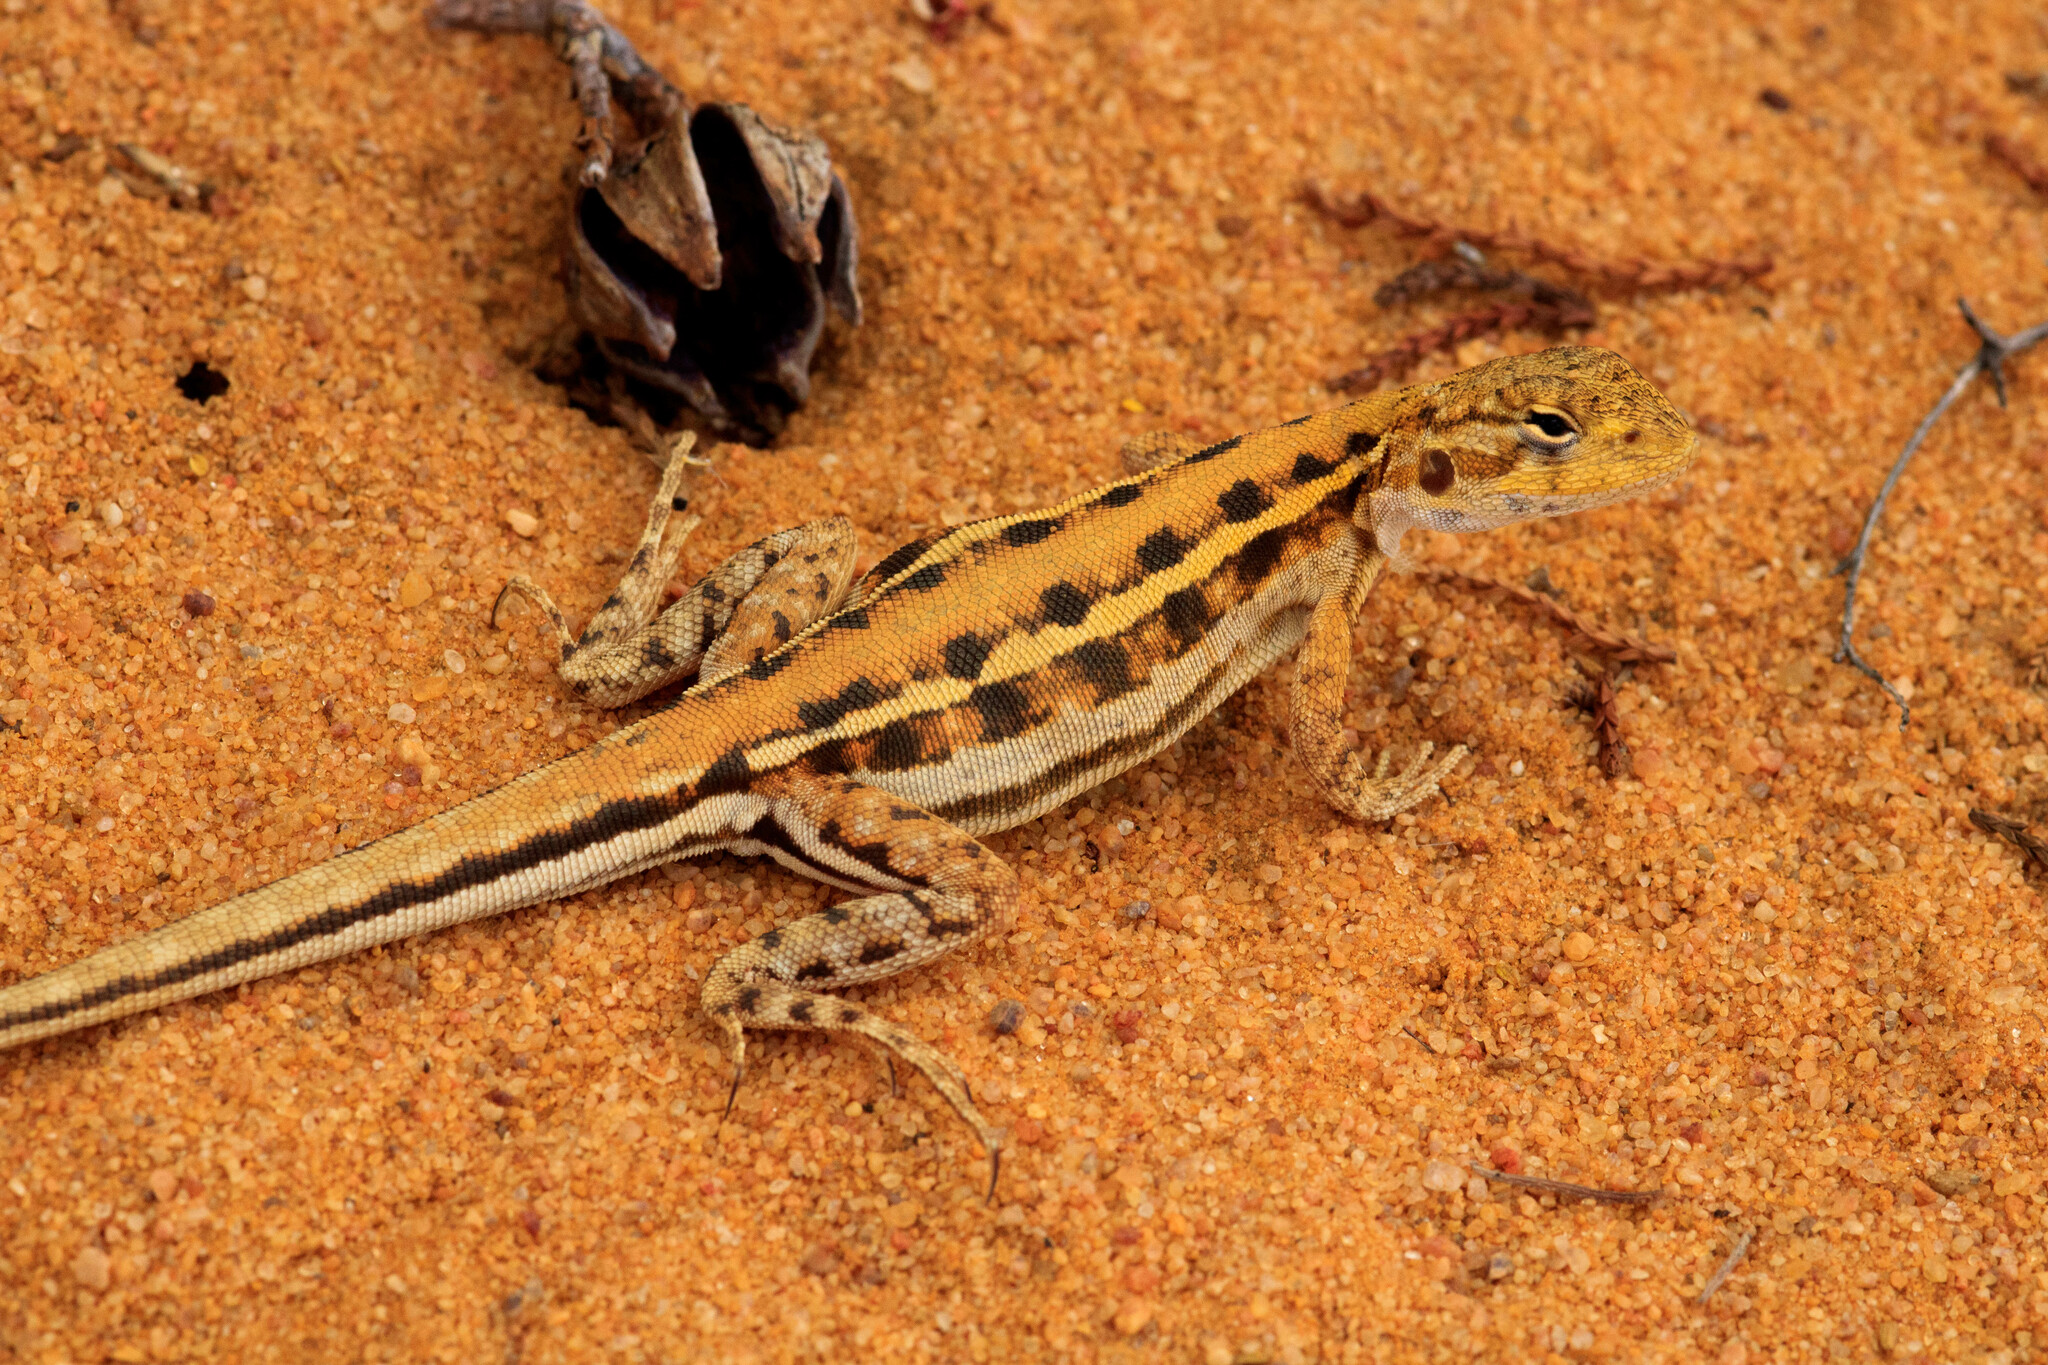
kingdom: Animalia
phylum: Chordata
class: Squamata
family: Agamidae
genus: Ctenophorus
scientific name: Ctenophorus maculatus
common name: Spotted dragon
